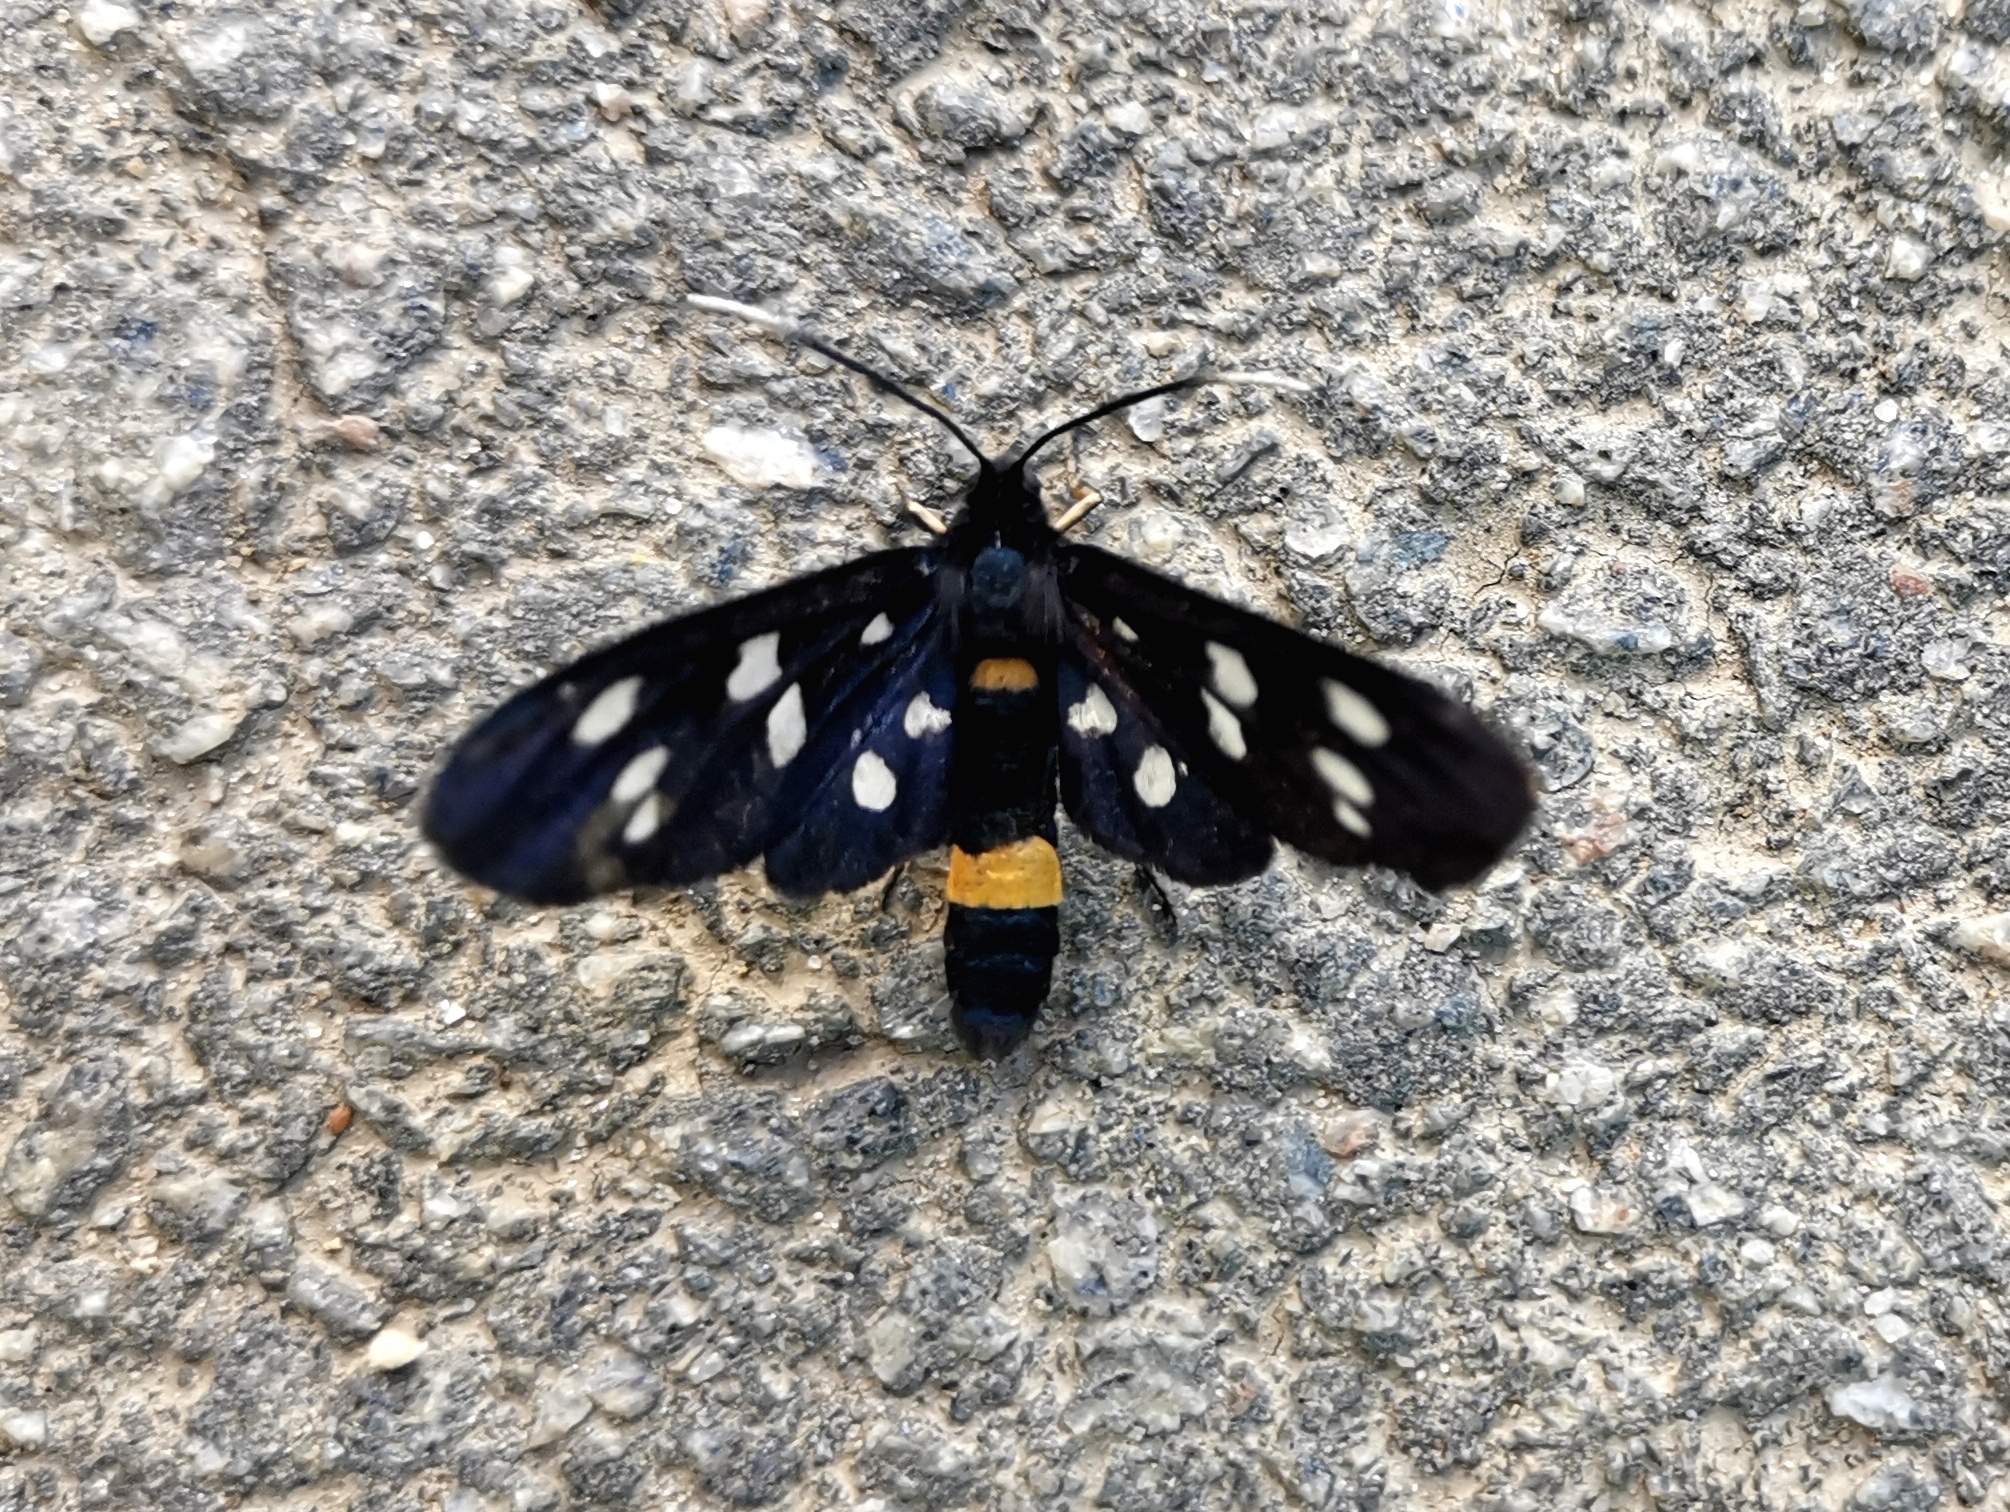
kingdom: Animalia
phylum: Arthropoda
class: Insecta
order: Lepidoptera
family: Erebidae
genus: Amata
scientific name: Amata phegea
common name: Nine-spotted
